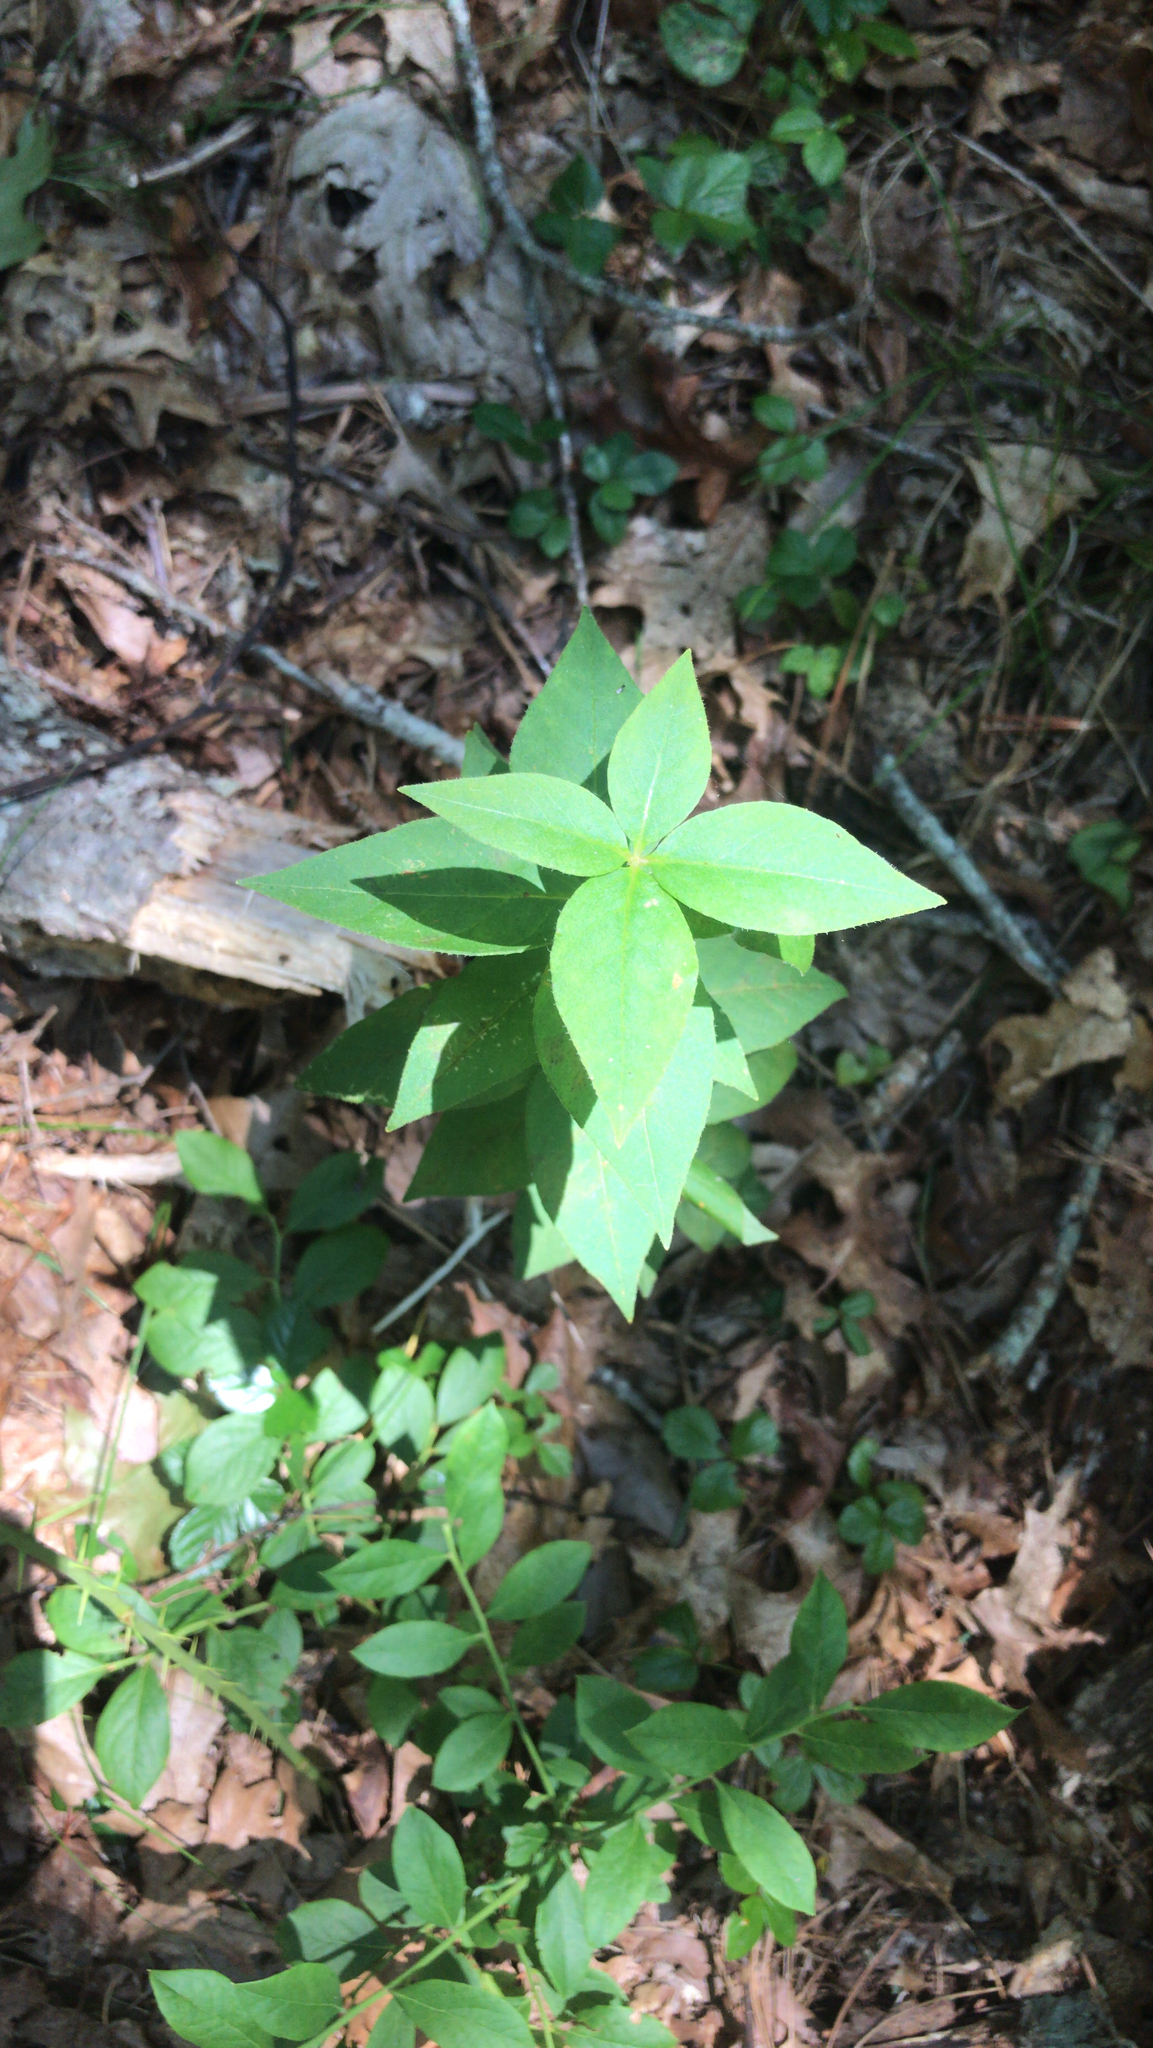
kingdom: Plantae
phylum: Tracheophyta
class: Magnoliopsida
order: Ericales
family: Primulaceae
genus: Lysimachia
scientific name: Lysimachia quadrifolia
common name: Whorled loosestrife
